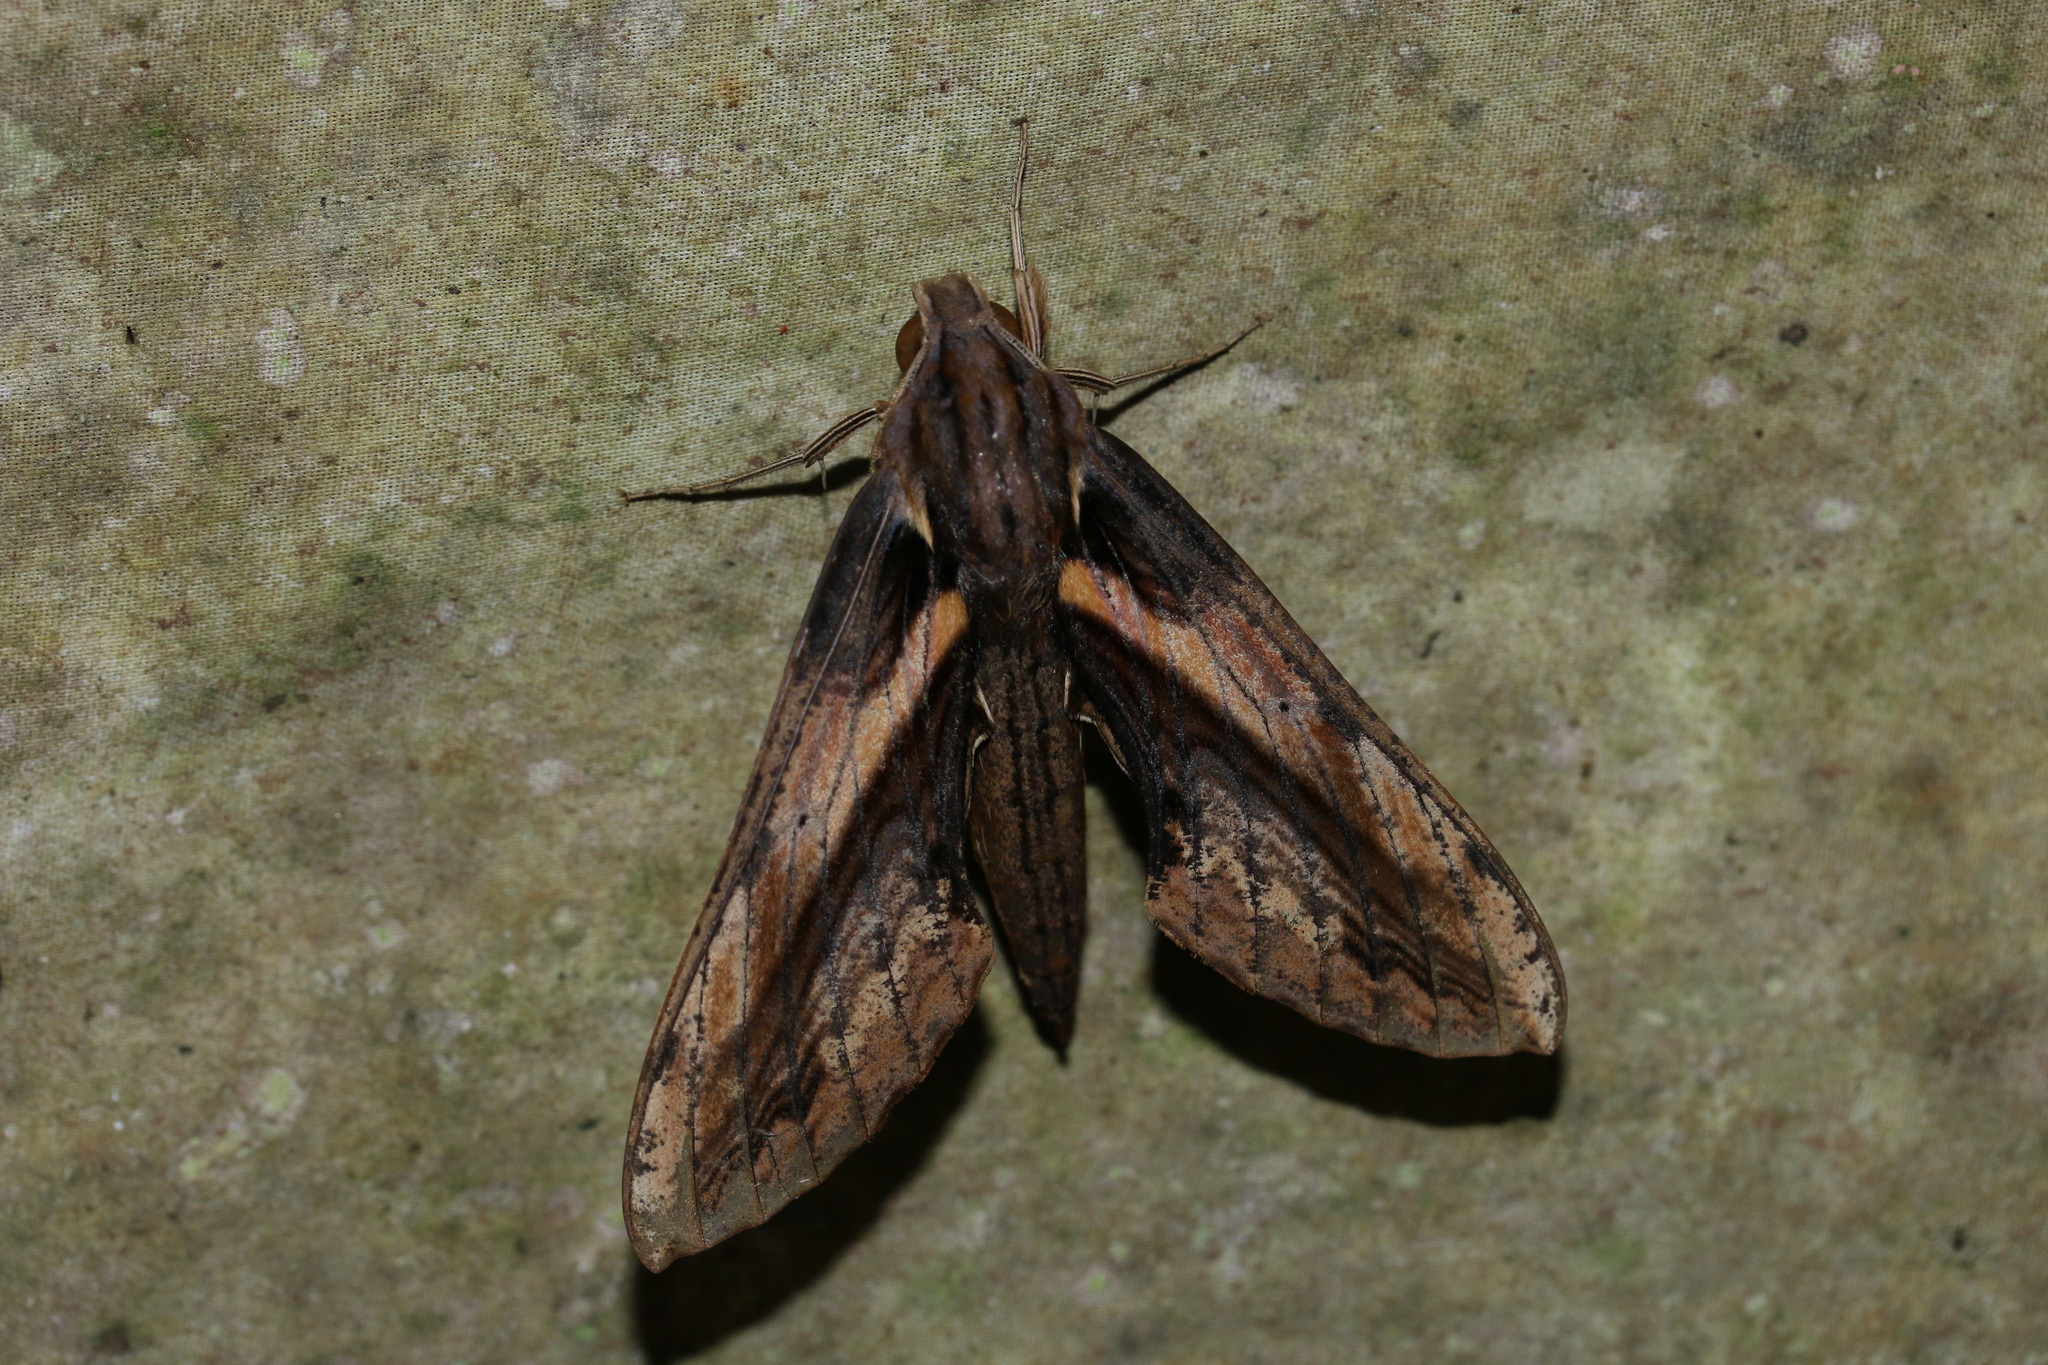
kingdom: Animalia
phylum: Arthropoda
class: Insecta
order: Lepidoptera
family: Sphingidae
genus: Xylophanes
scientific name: Xylophanes ceratomioides
